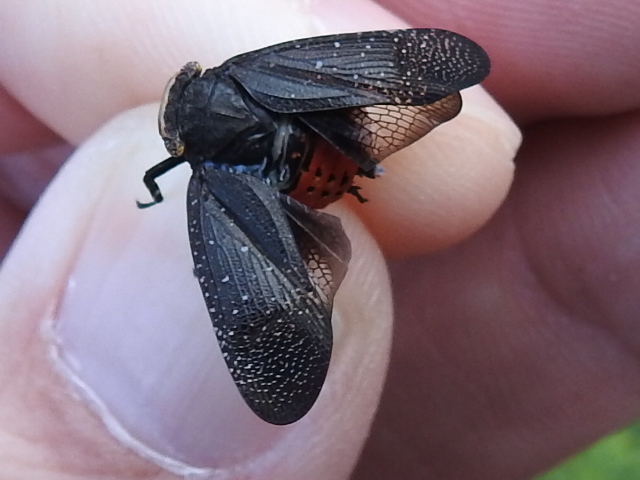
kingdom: Animalia
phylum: Arthropoda
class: Insecta
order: Hemiptera
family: Fulgoridae
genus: Crepusia
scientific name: Crepusia fuliginosa
